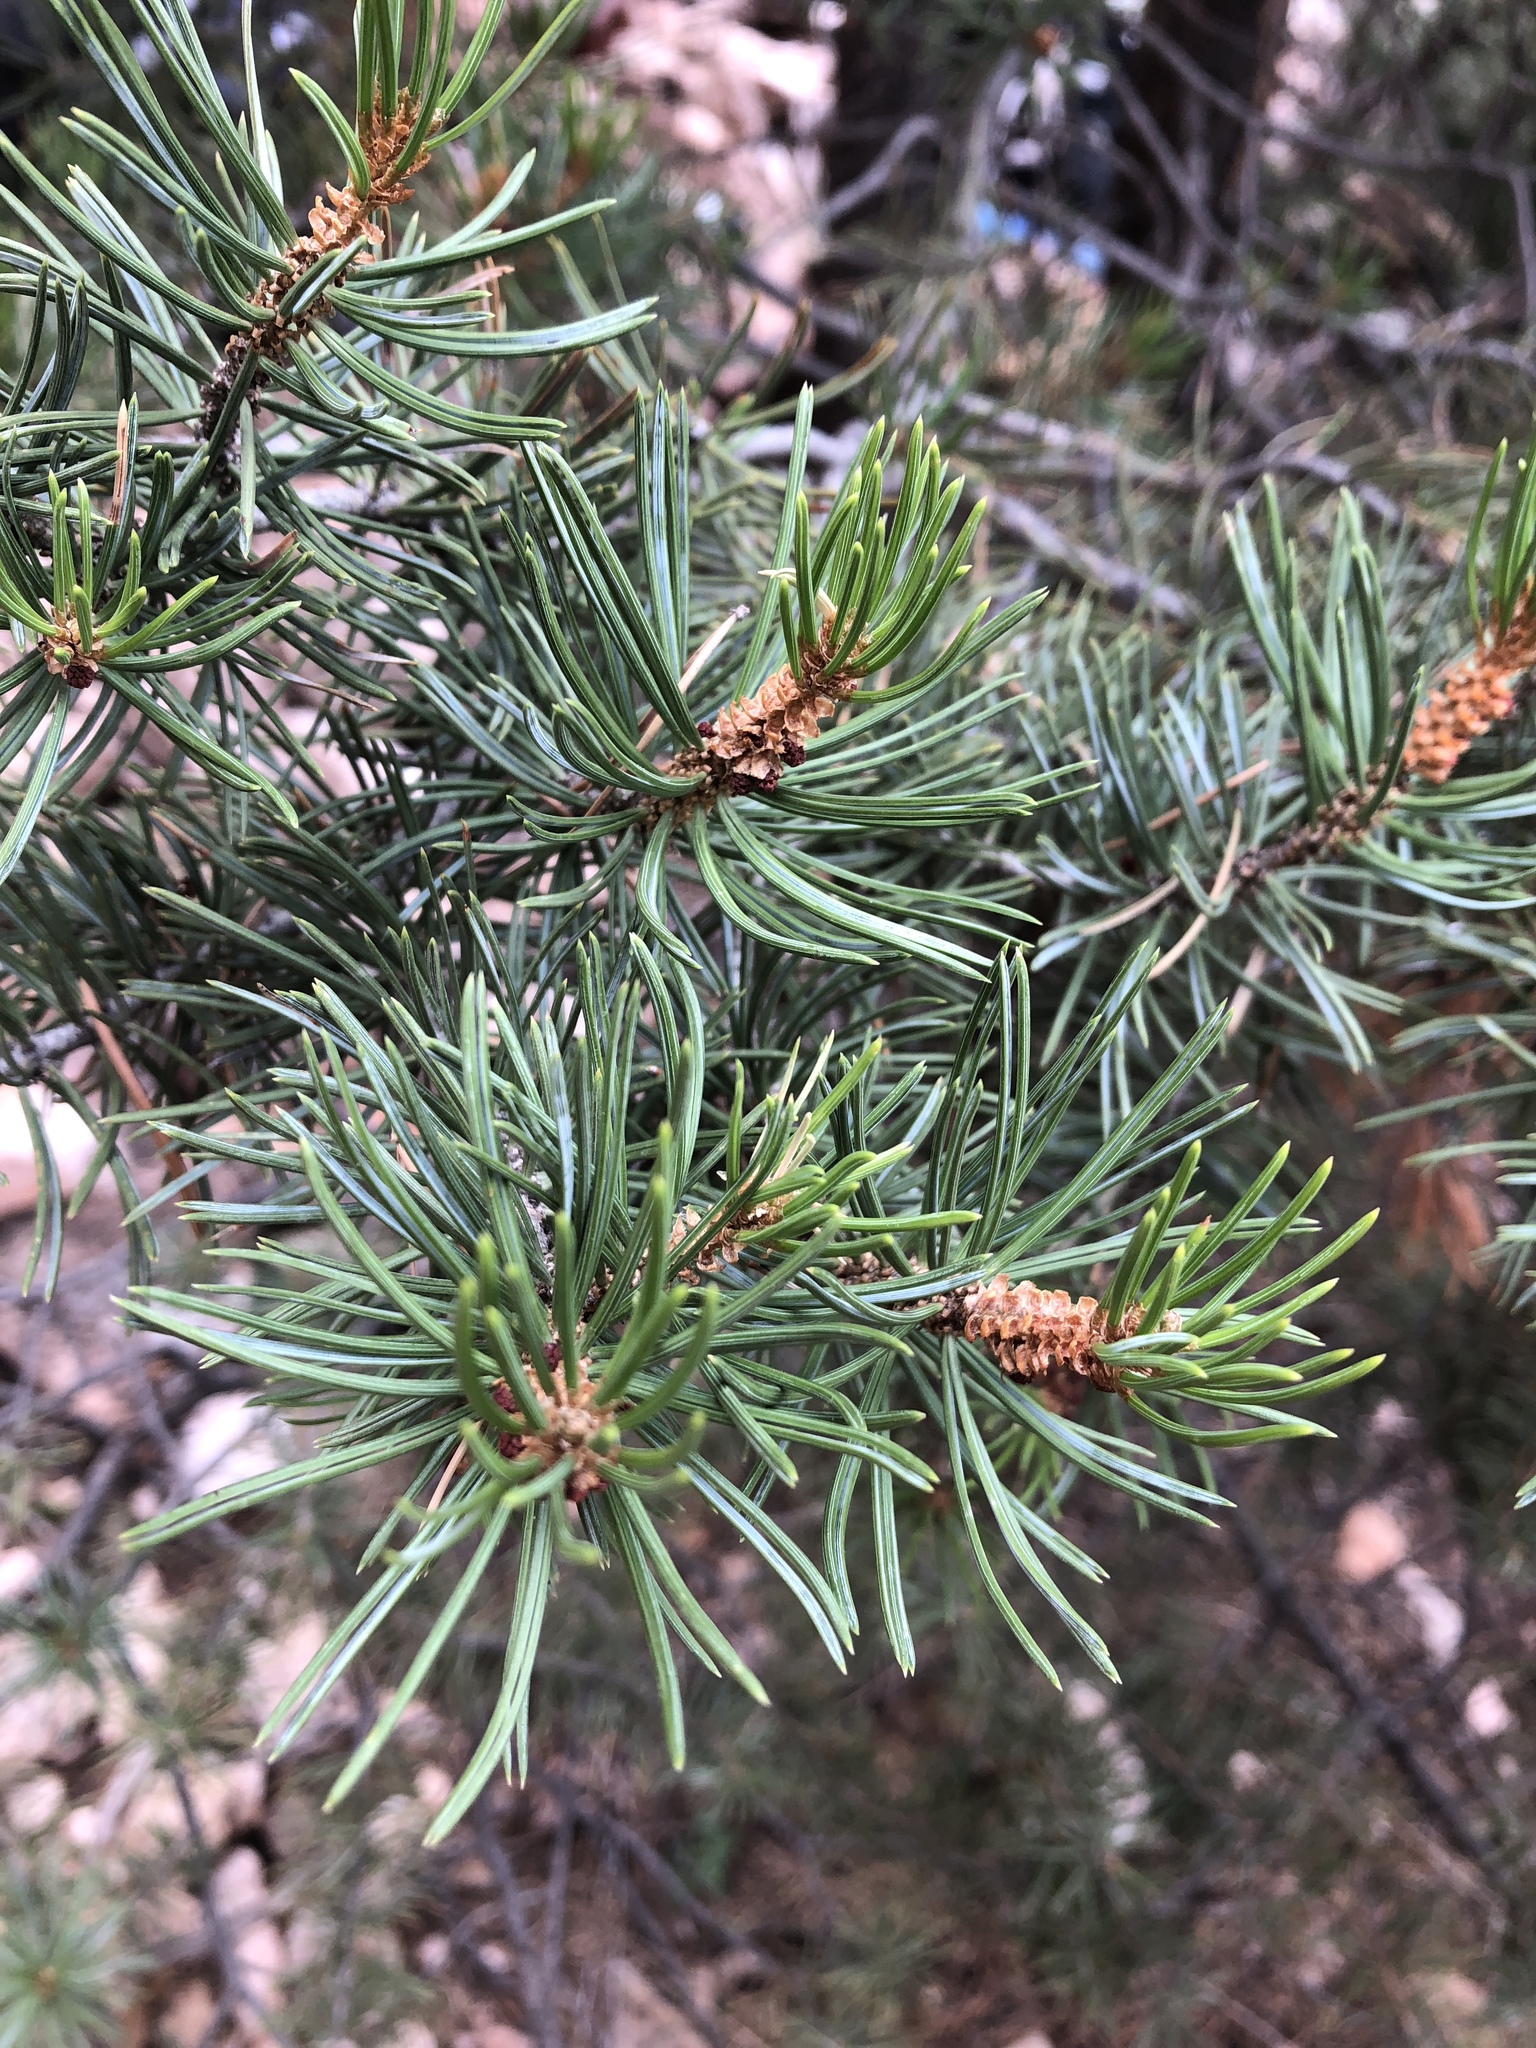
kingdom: Plantae
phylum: Tracheophyta
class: Pinopsida
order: Pinales
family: Pinaceae
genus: Pinus
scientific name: Pinus edulis
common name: Colorado pinyon
